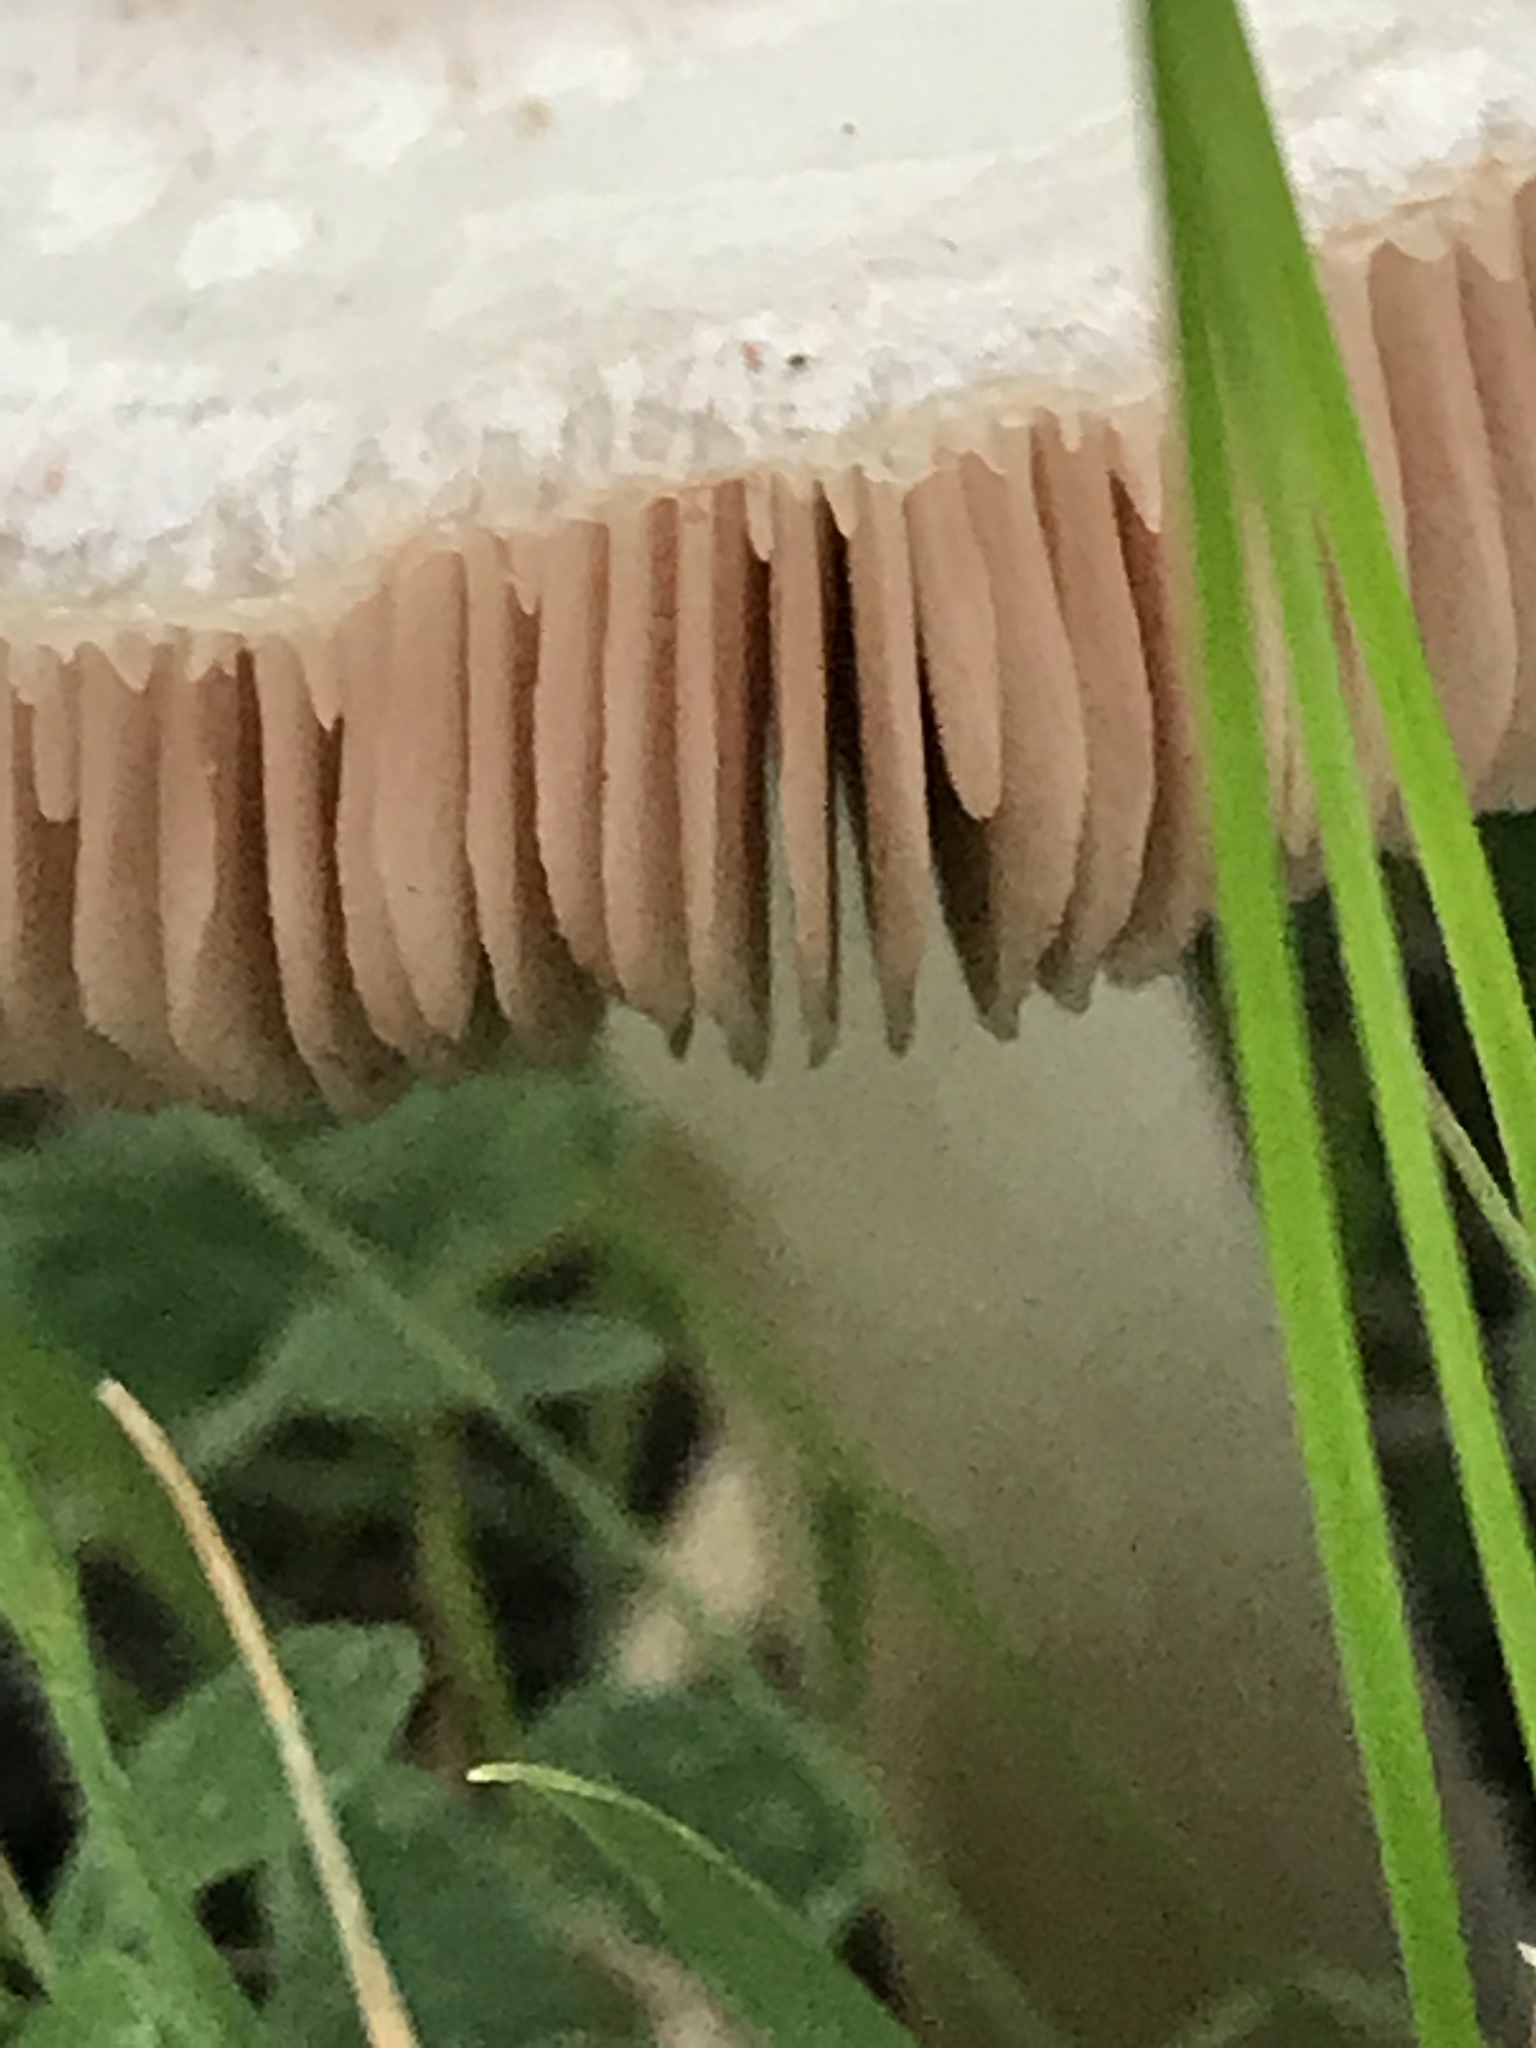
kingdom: Fungi
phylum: Basidiomycota
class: Agaricomycetes
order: Agaricales
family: Pluteaceae
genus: Volvopluteus
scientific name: Volvopluteus gloiocephalus
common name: Stubble rosegill
